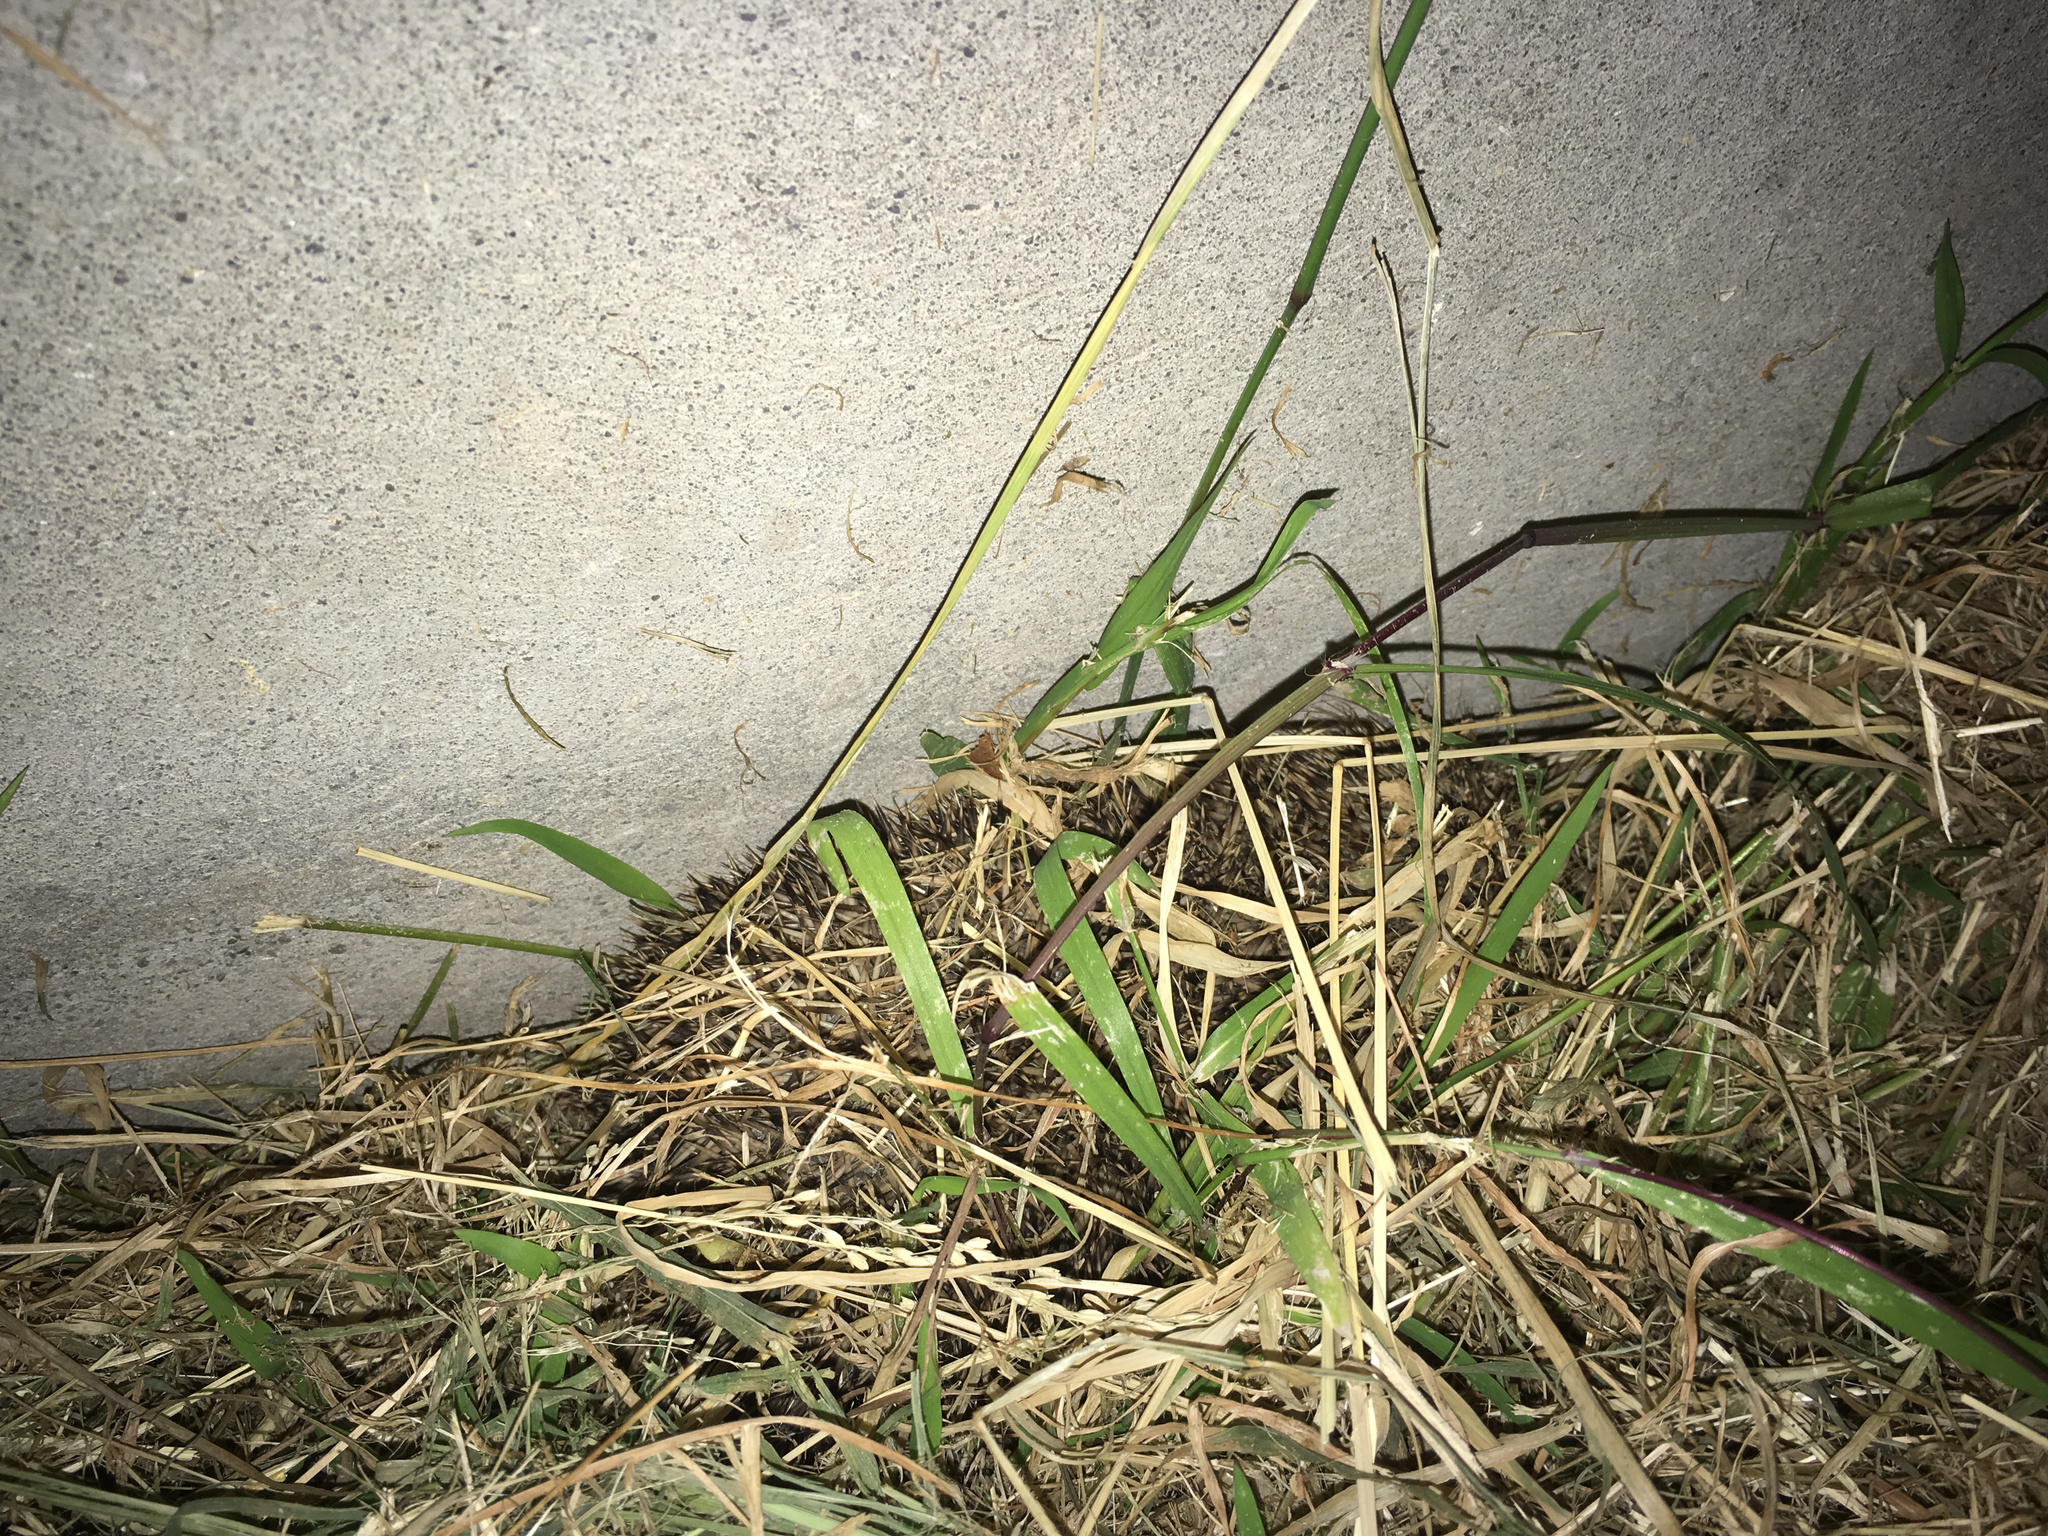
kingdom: Animalia
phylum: Chordata
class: Mammalia
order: Erinaceomorpha
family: Erinaceidae
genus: Erinaceus
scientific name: Erinaceus europaeus
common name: West european hedgehog
